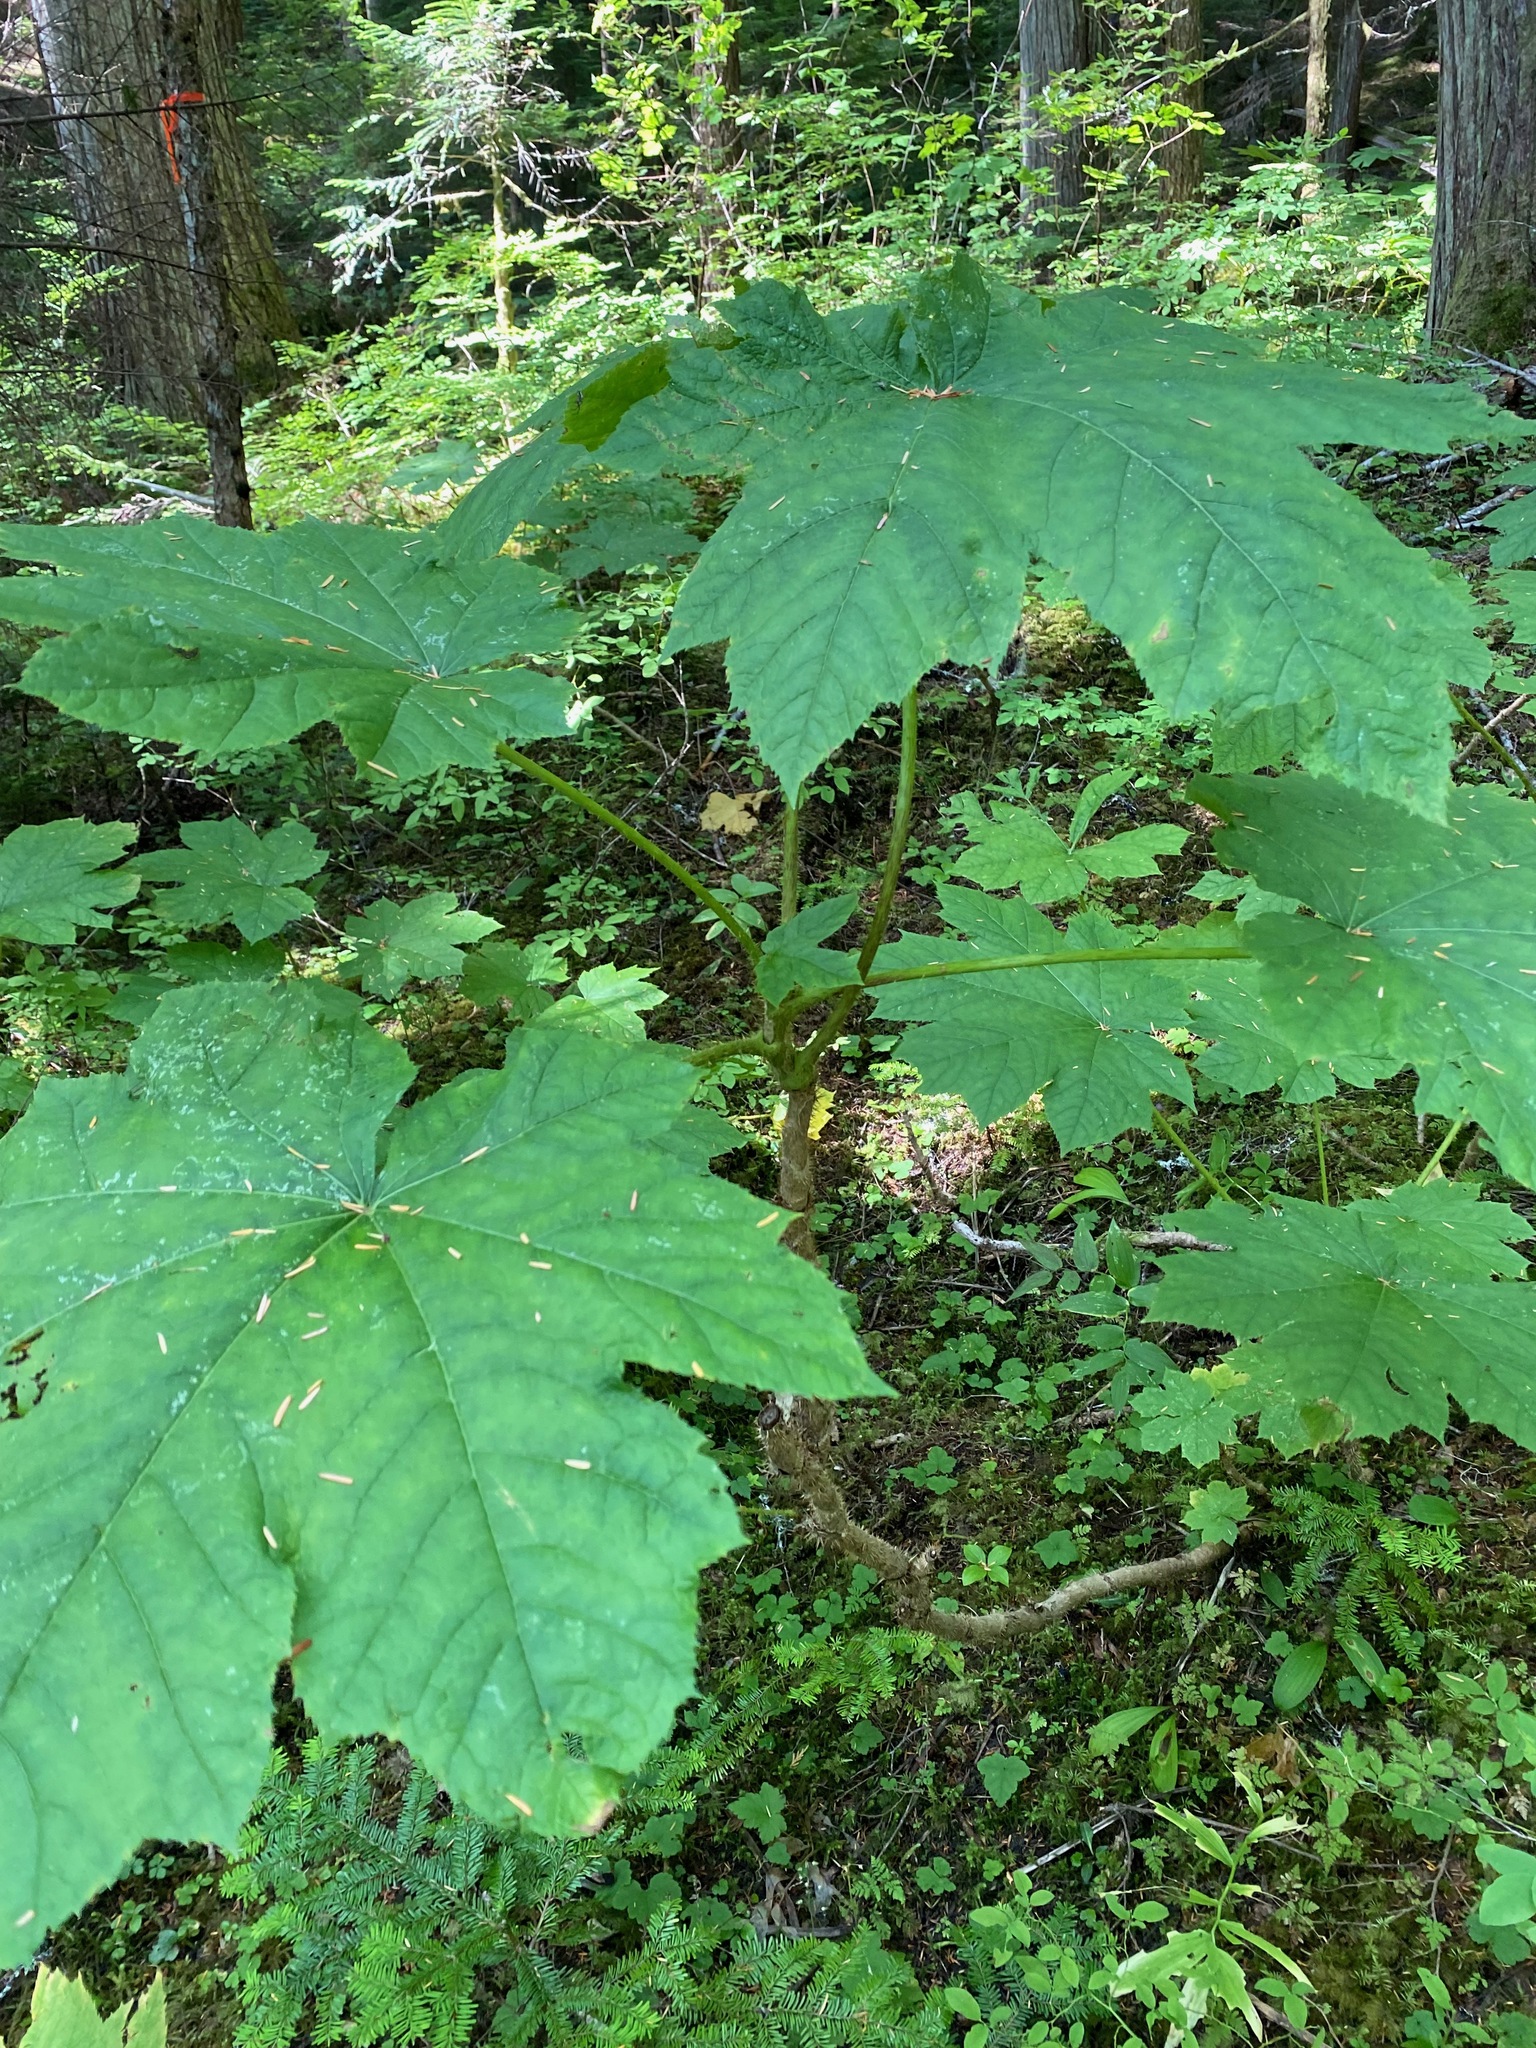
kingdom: Plantae
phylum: Tracheophyta
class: Magnoliopsida
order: Apiales
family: Araliaceae
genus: Oplopanax
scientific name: Oplopanax horridus
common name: Devil's walking-stick
